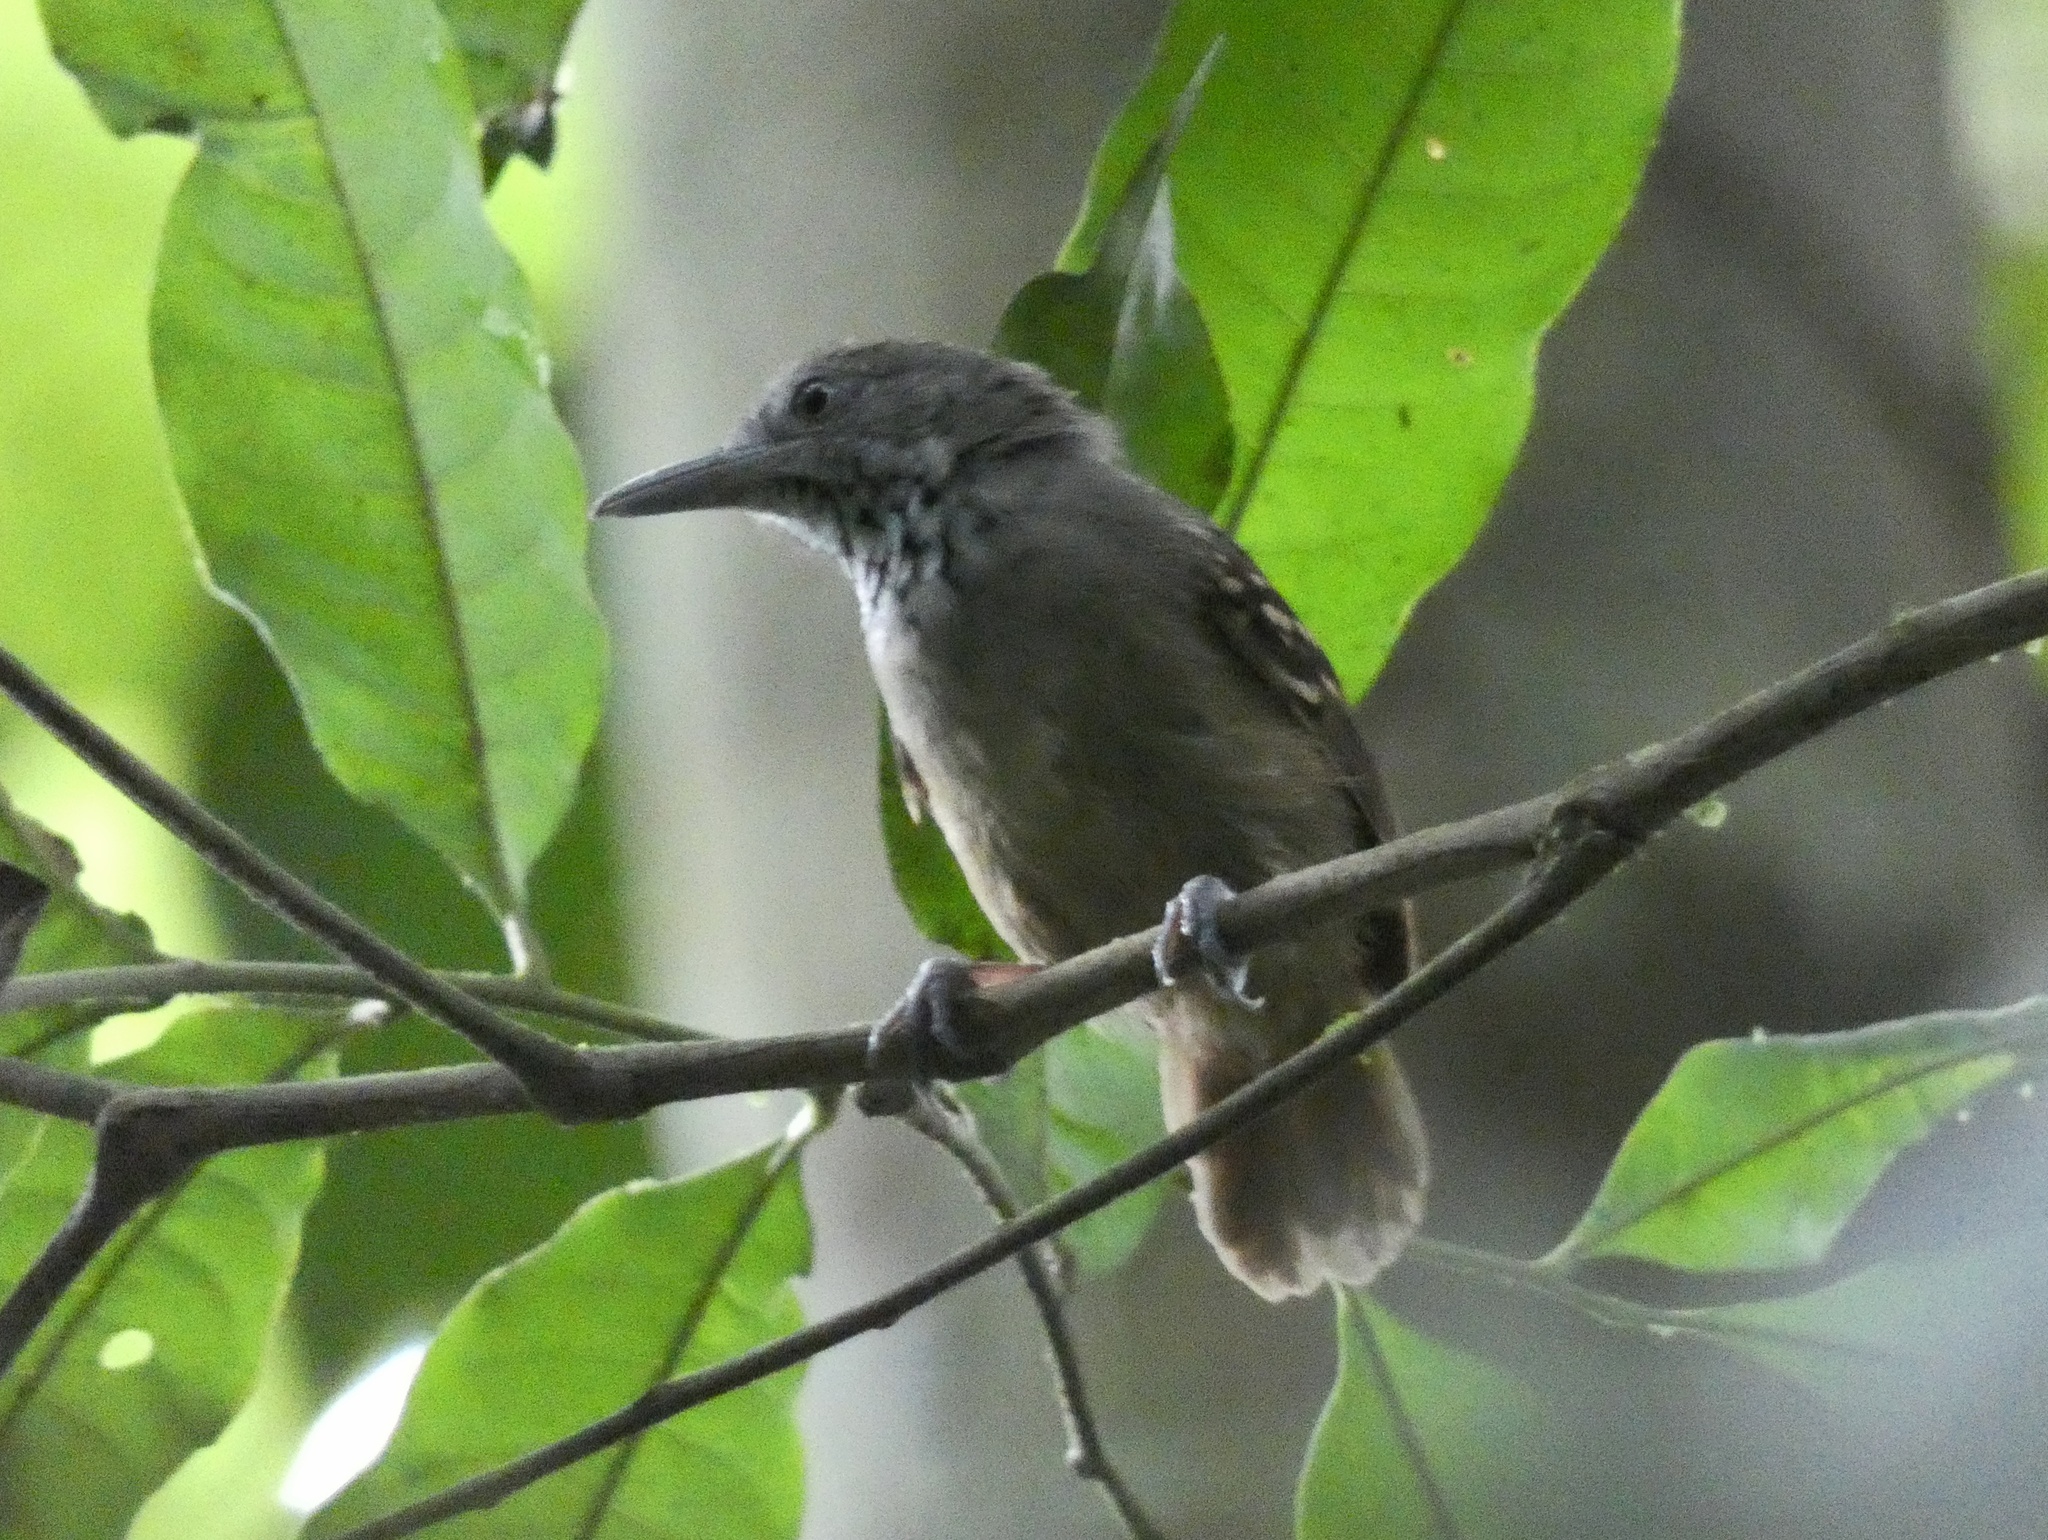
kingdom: Animalia
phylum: Chordata
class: Aves
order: Passeriformes
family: Thamnophilidae
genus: Epinecrophylla
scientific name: Epinecrophylla fulviventris
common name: Checker-throated antwren
